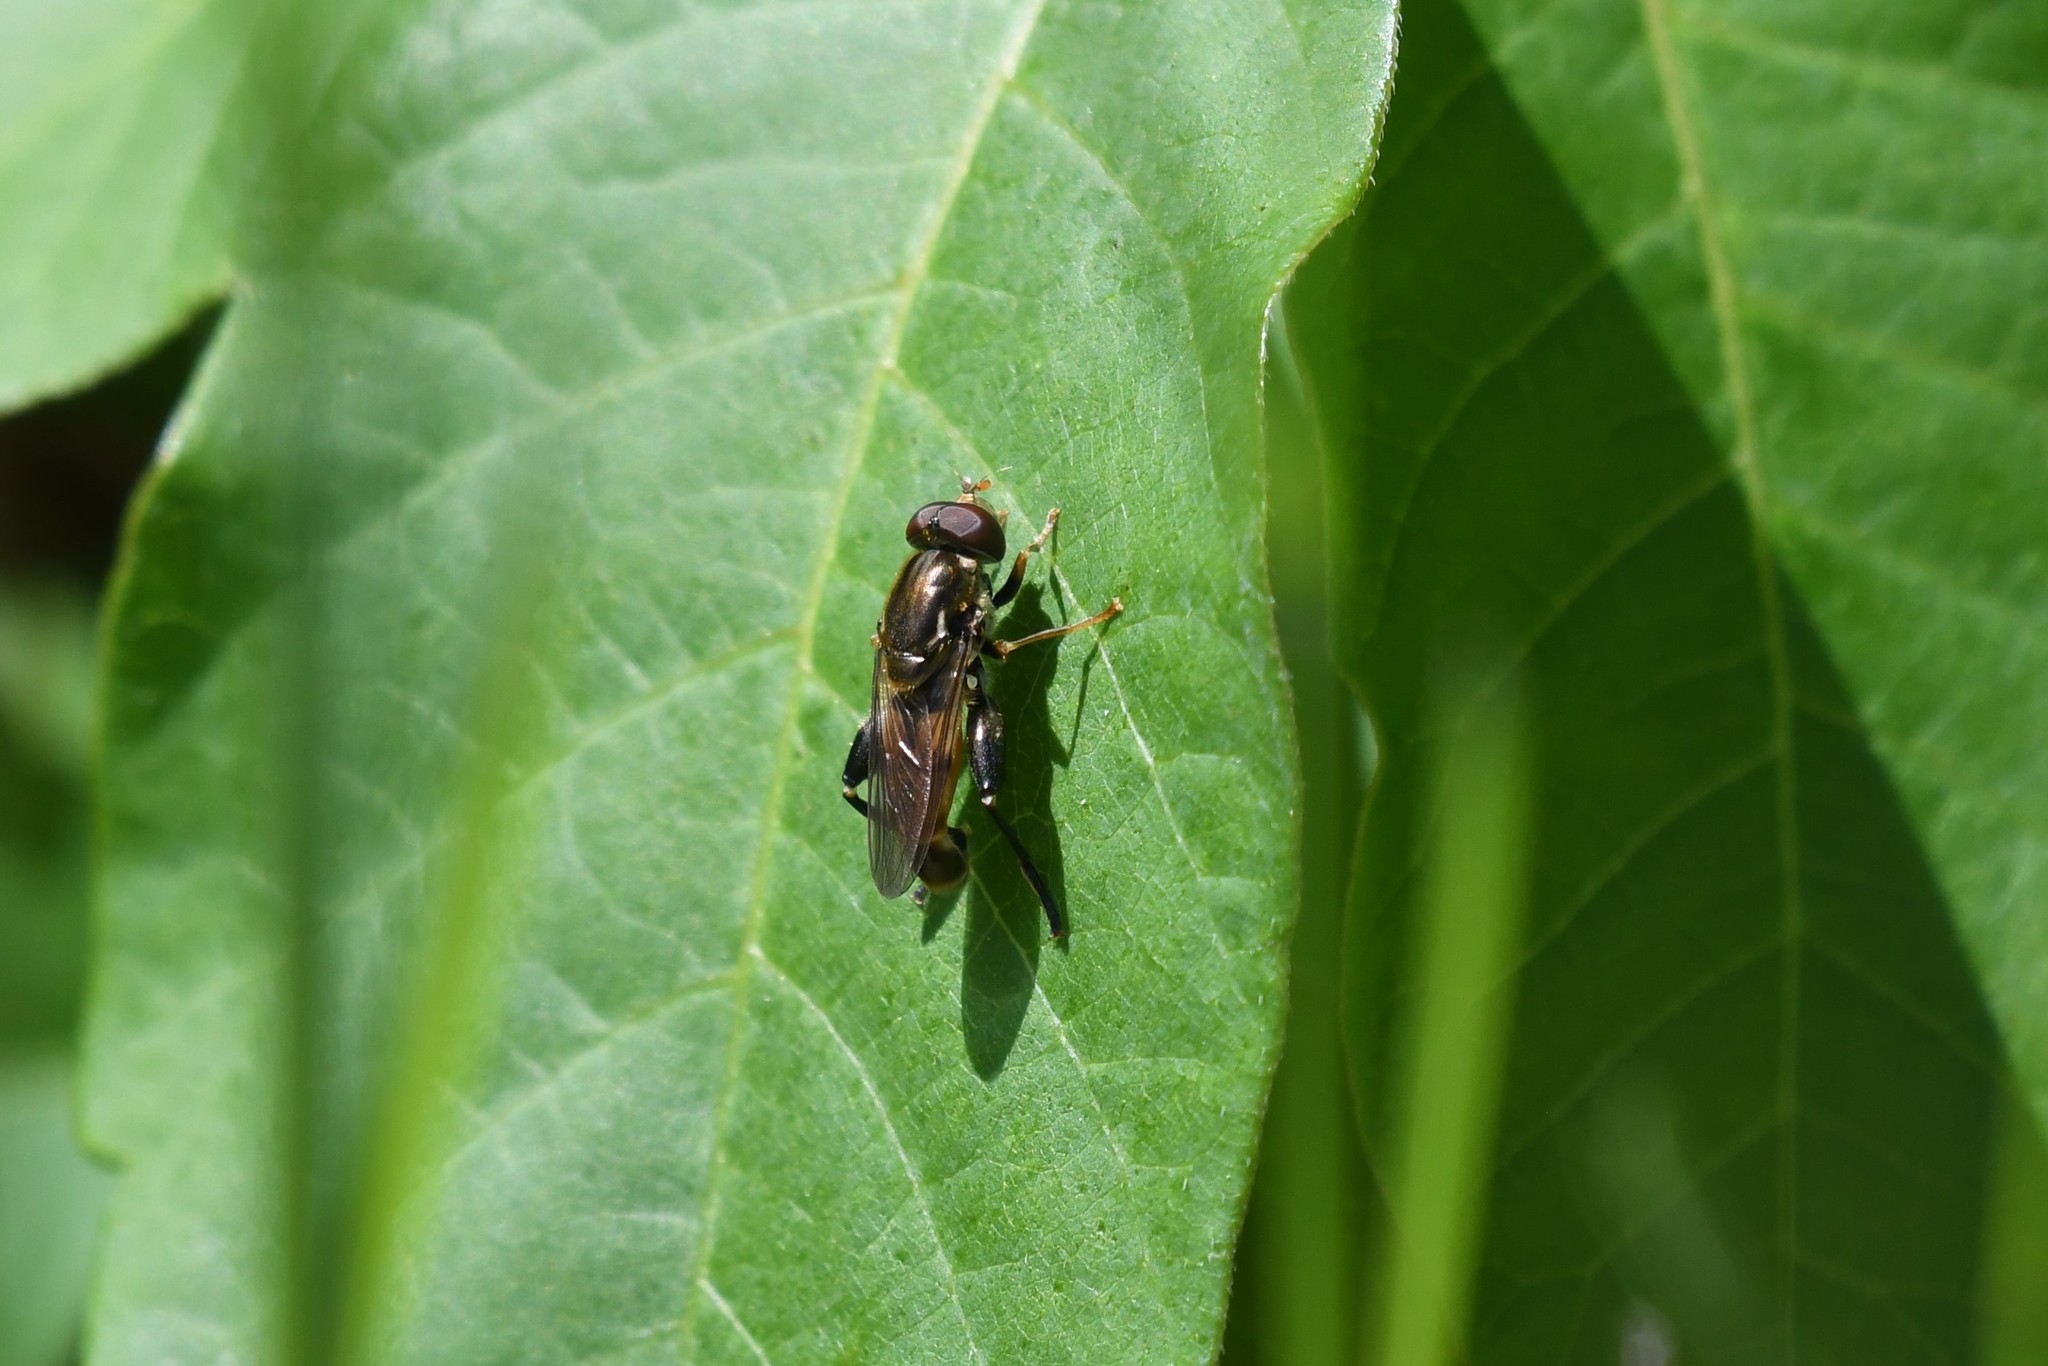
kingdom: Animalia
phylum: Arthropoda
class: Insecta
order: Diptera
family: Syrphidae
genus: Tropidia
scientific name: Tropidia quadrata
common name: Common thick-legged fly
